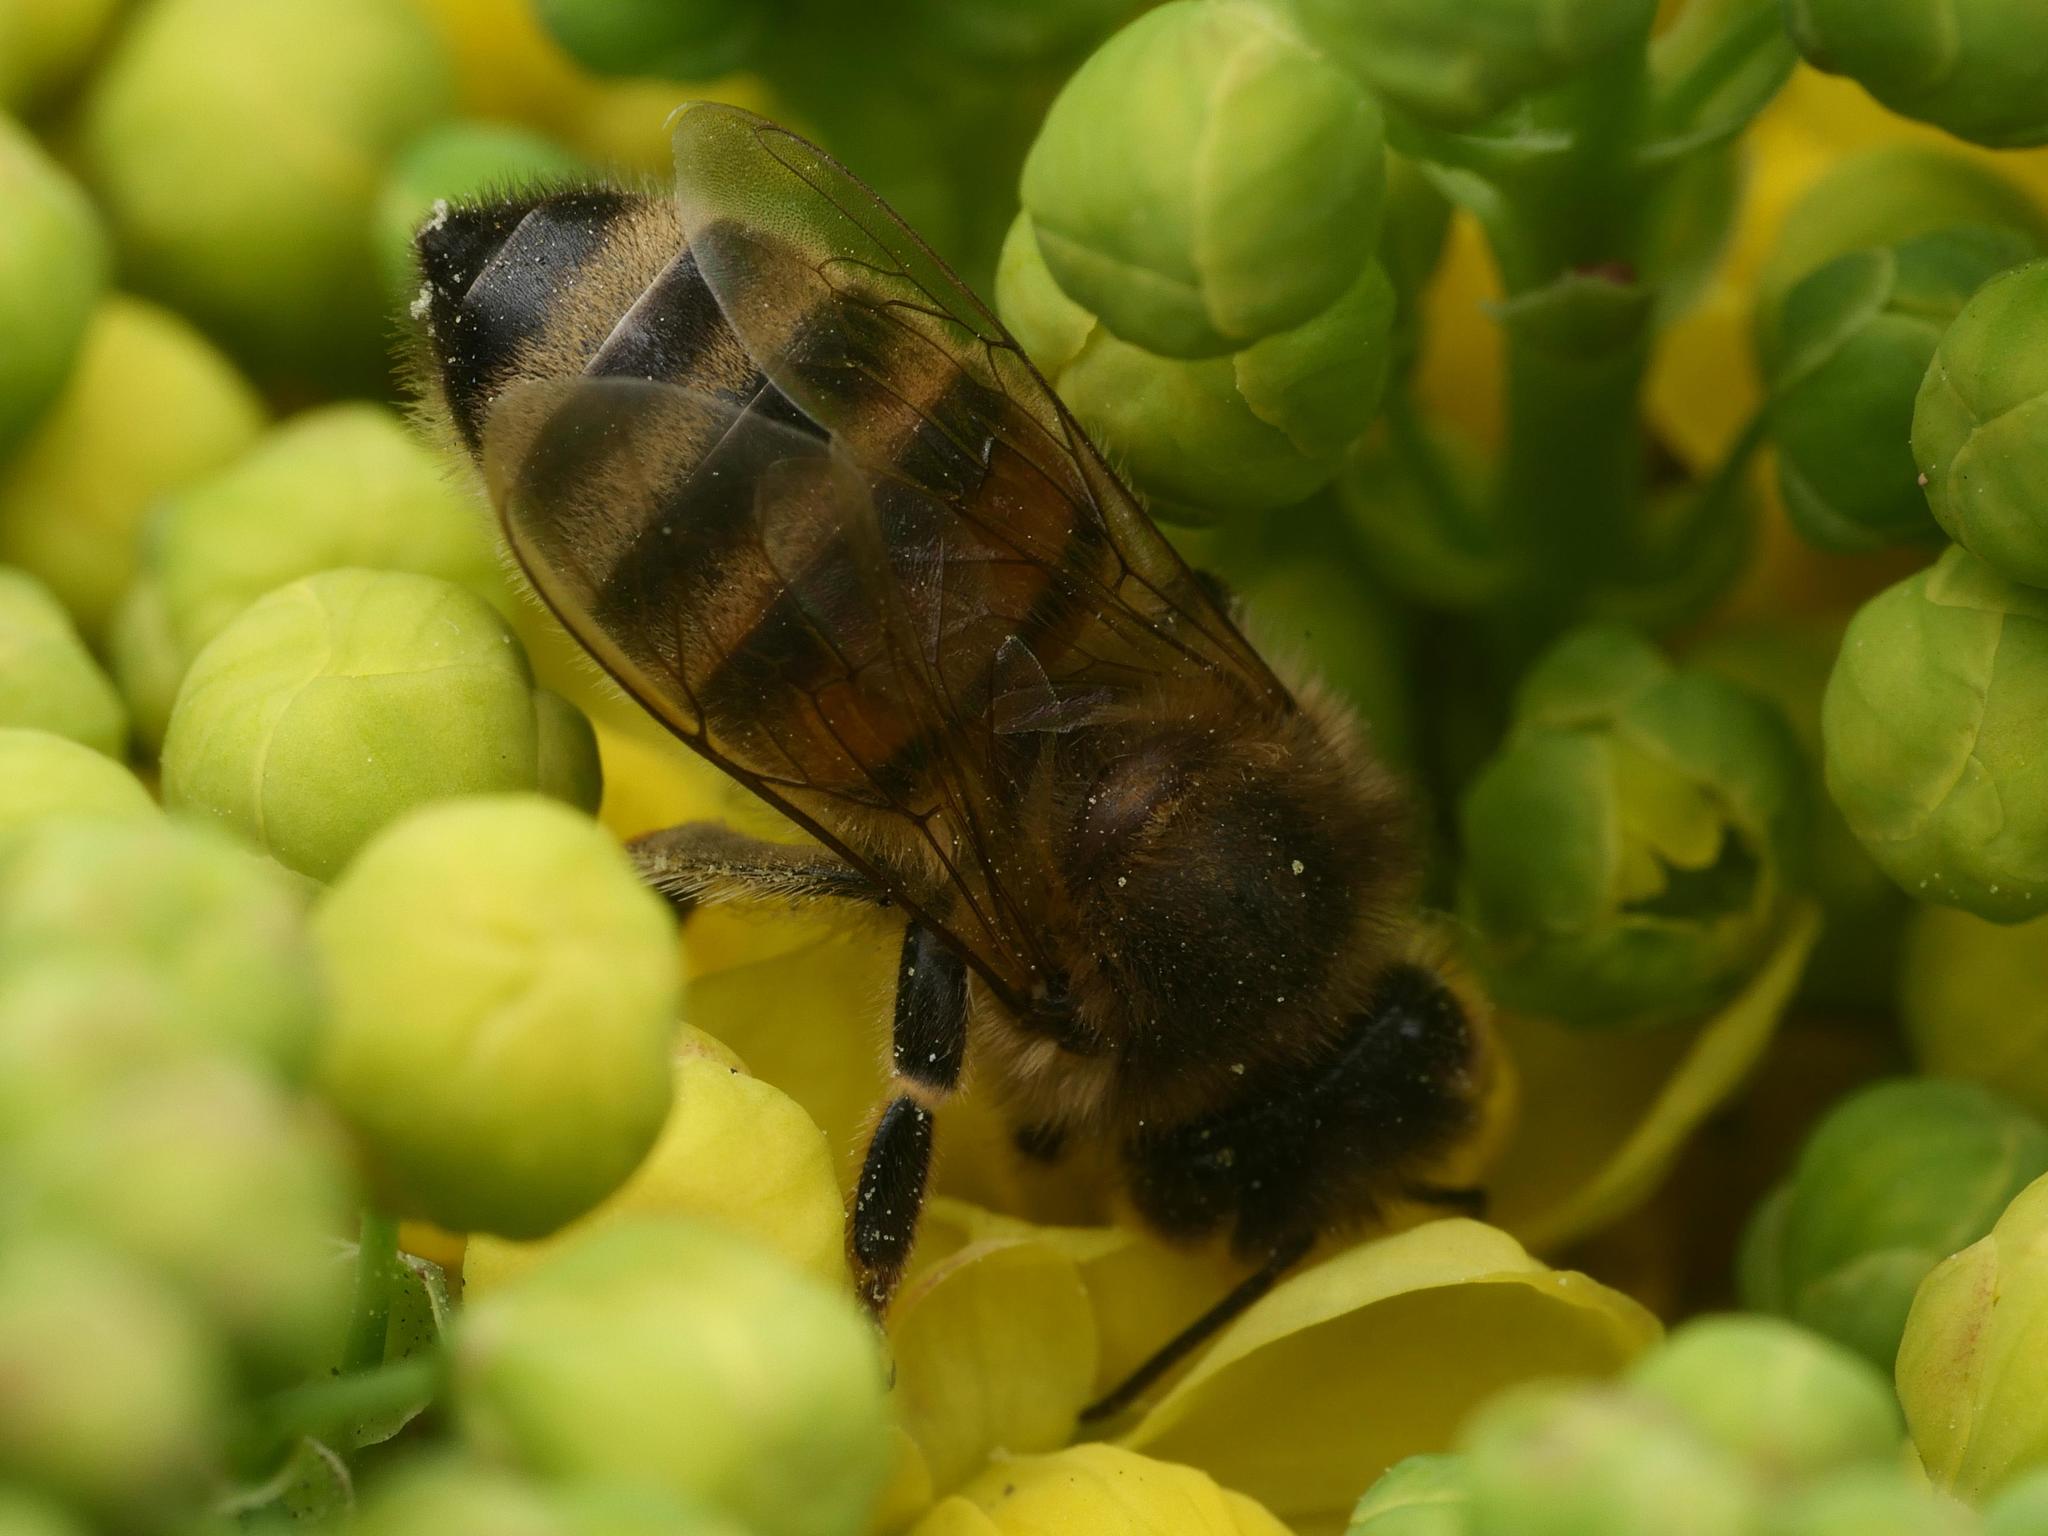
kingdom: Animalia
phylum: Arthropoda
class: Insecta
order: Hymenoptera
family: Apidae
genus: Apis
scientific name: Apis mellifera
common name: Honey bee
